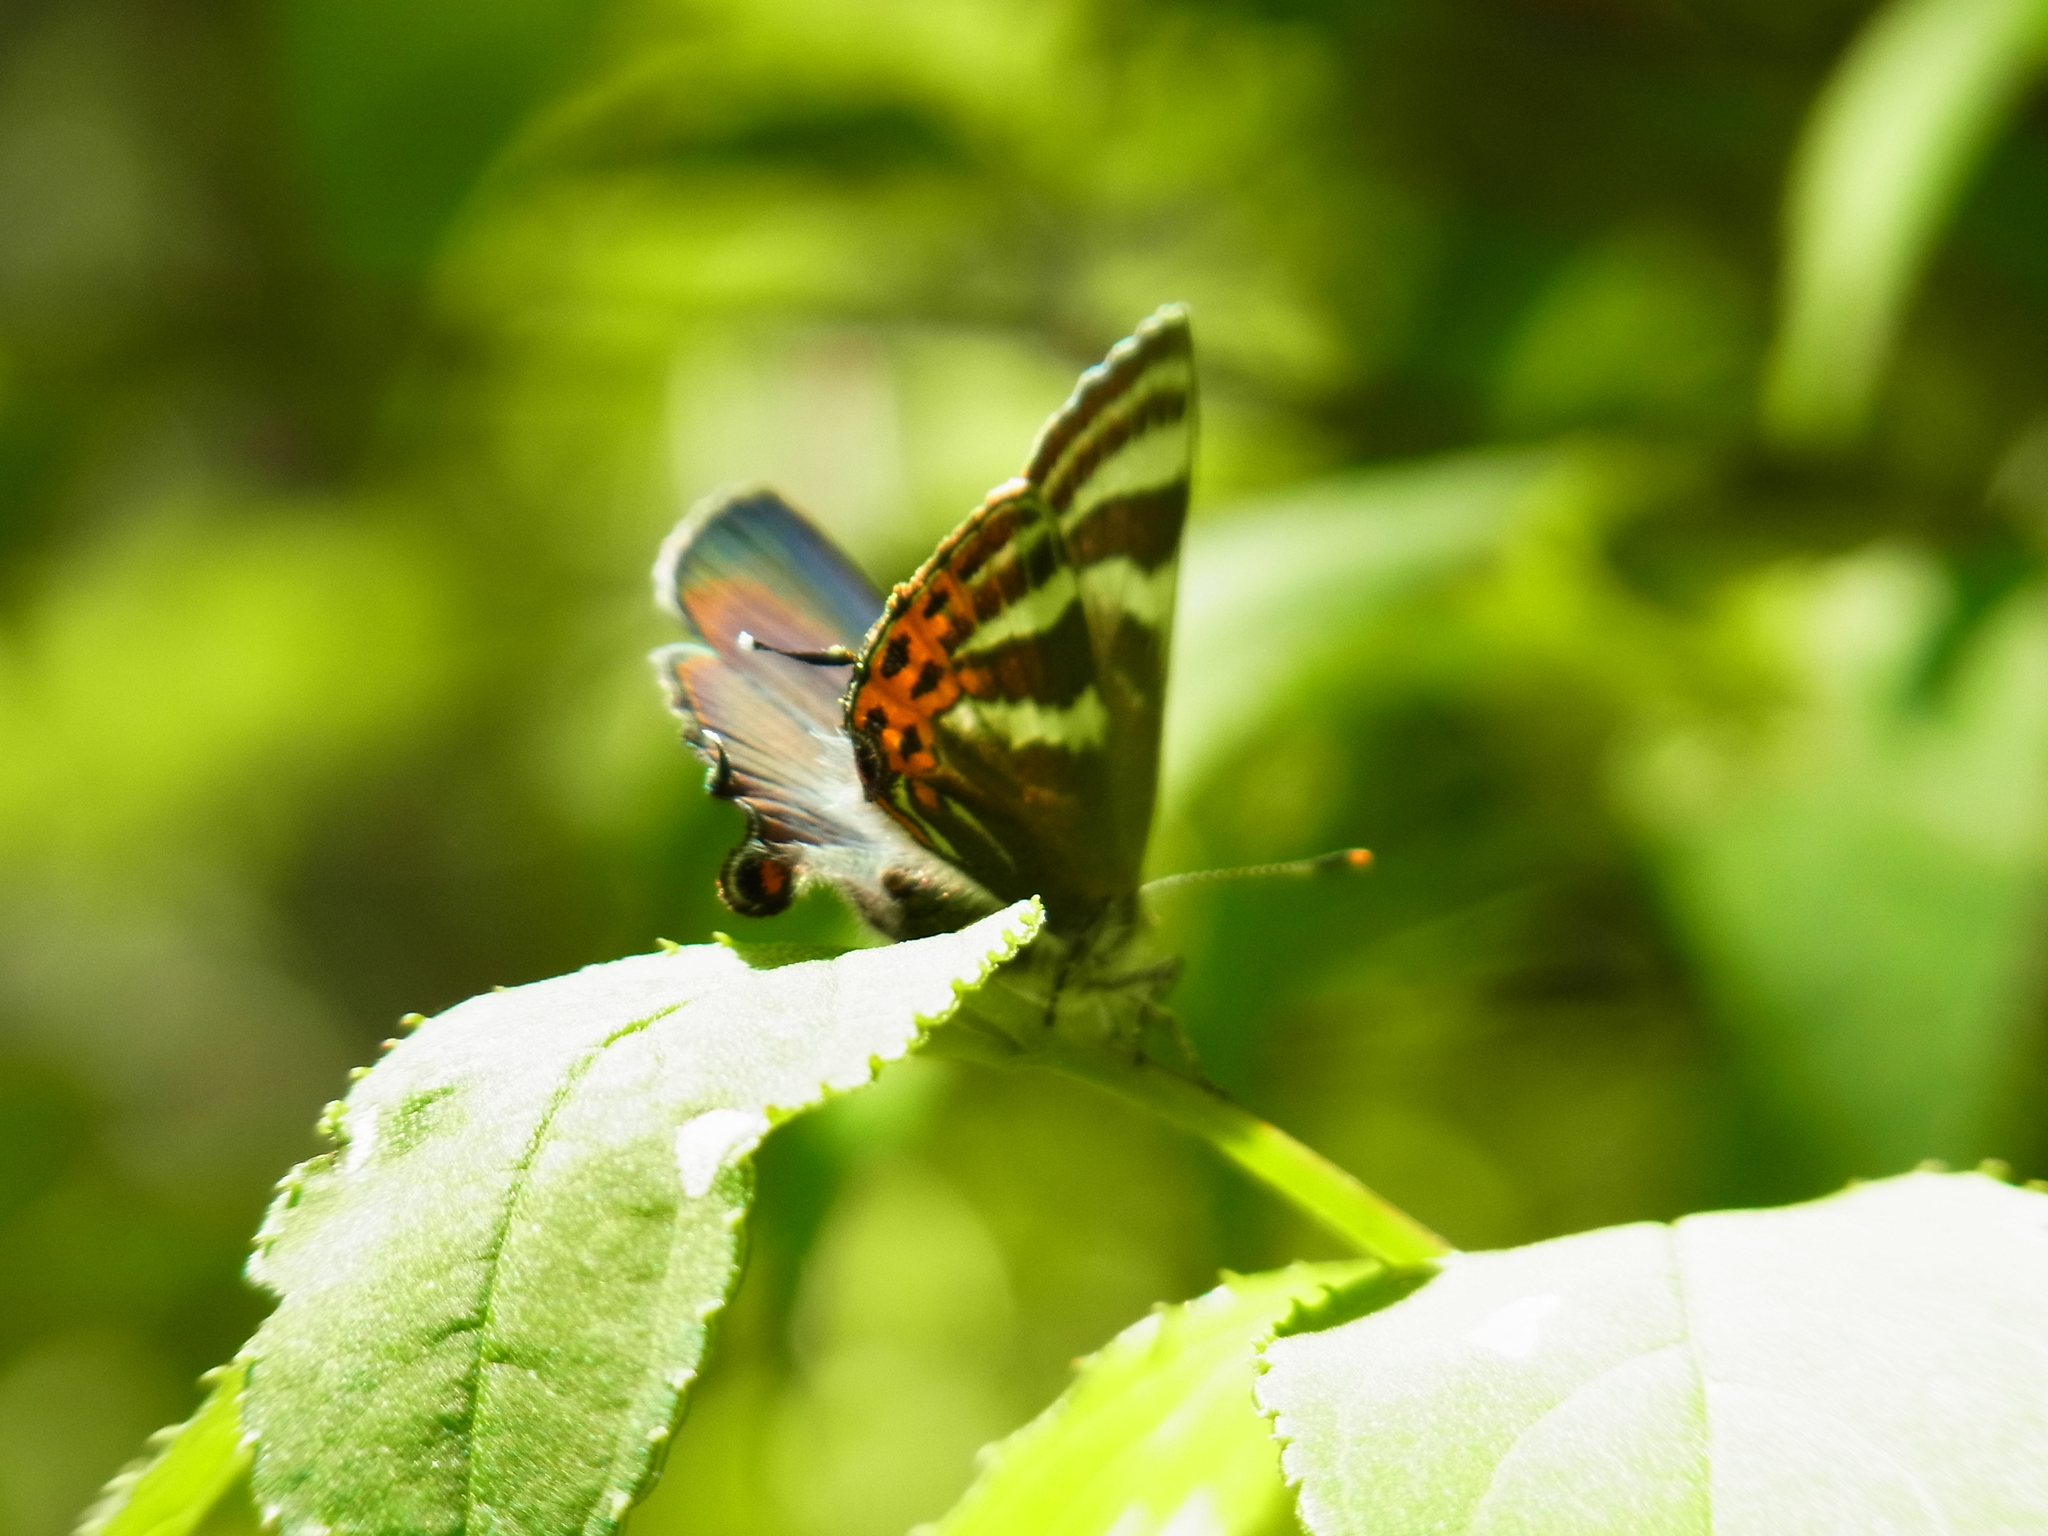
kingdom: Animalia
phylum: Arthropoda
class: Insecta
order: Lepidoptera
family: Lycaenidae
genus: Rapala
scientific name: Rapala arata
